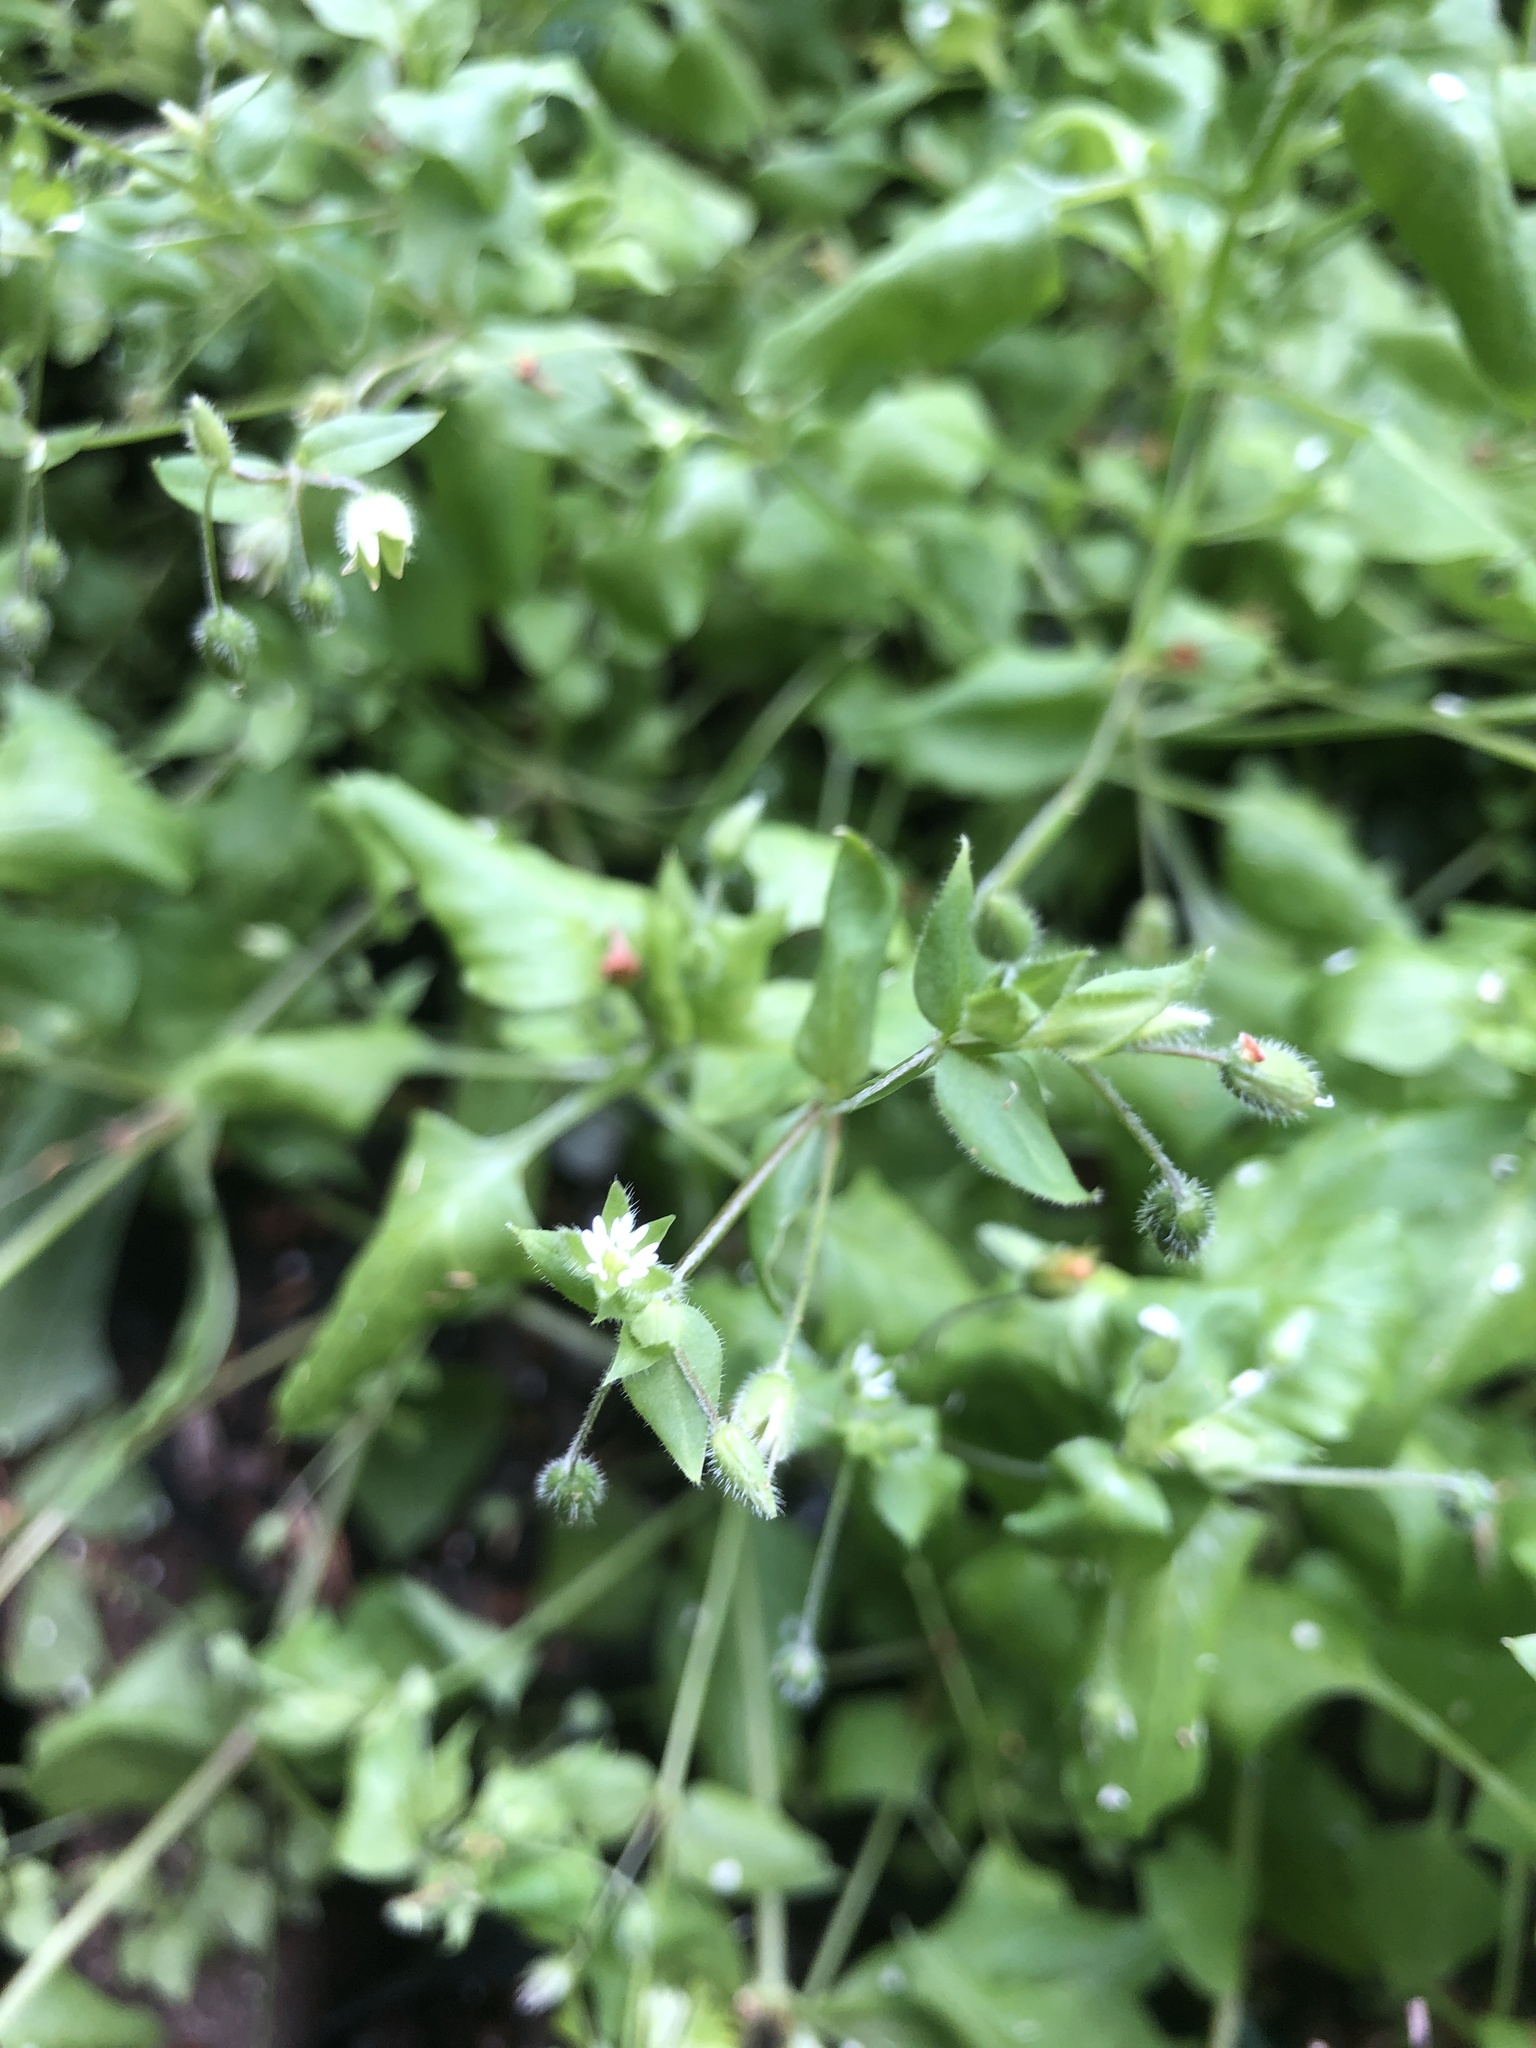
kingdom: Plantae
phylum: Tracheophyta
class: Magnoliopsida
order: Caryophyllales
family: Caryophyllaceae
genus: Stellaria
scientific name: Stellaria media
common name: Common chickweed
